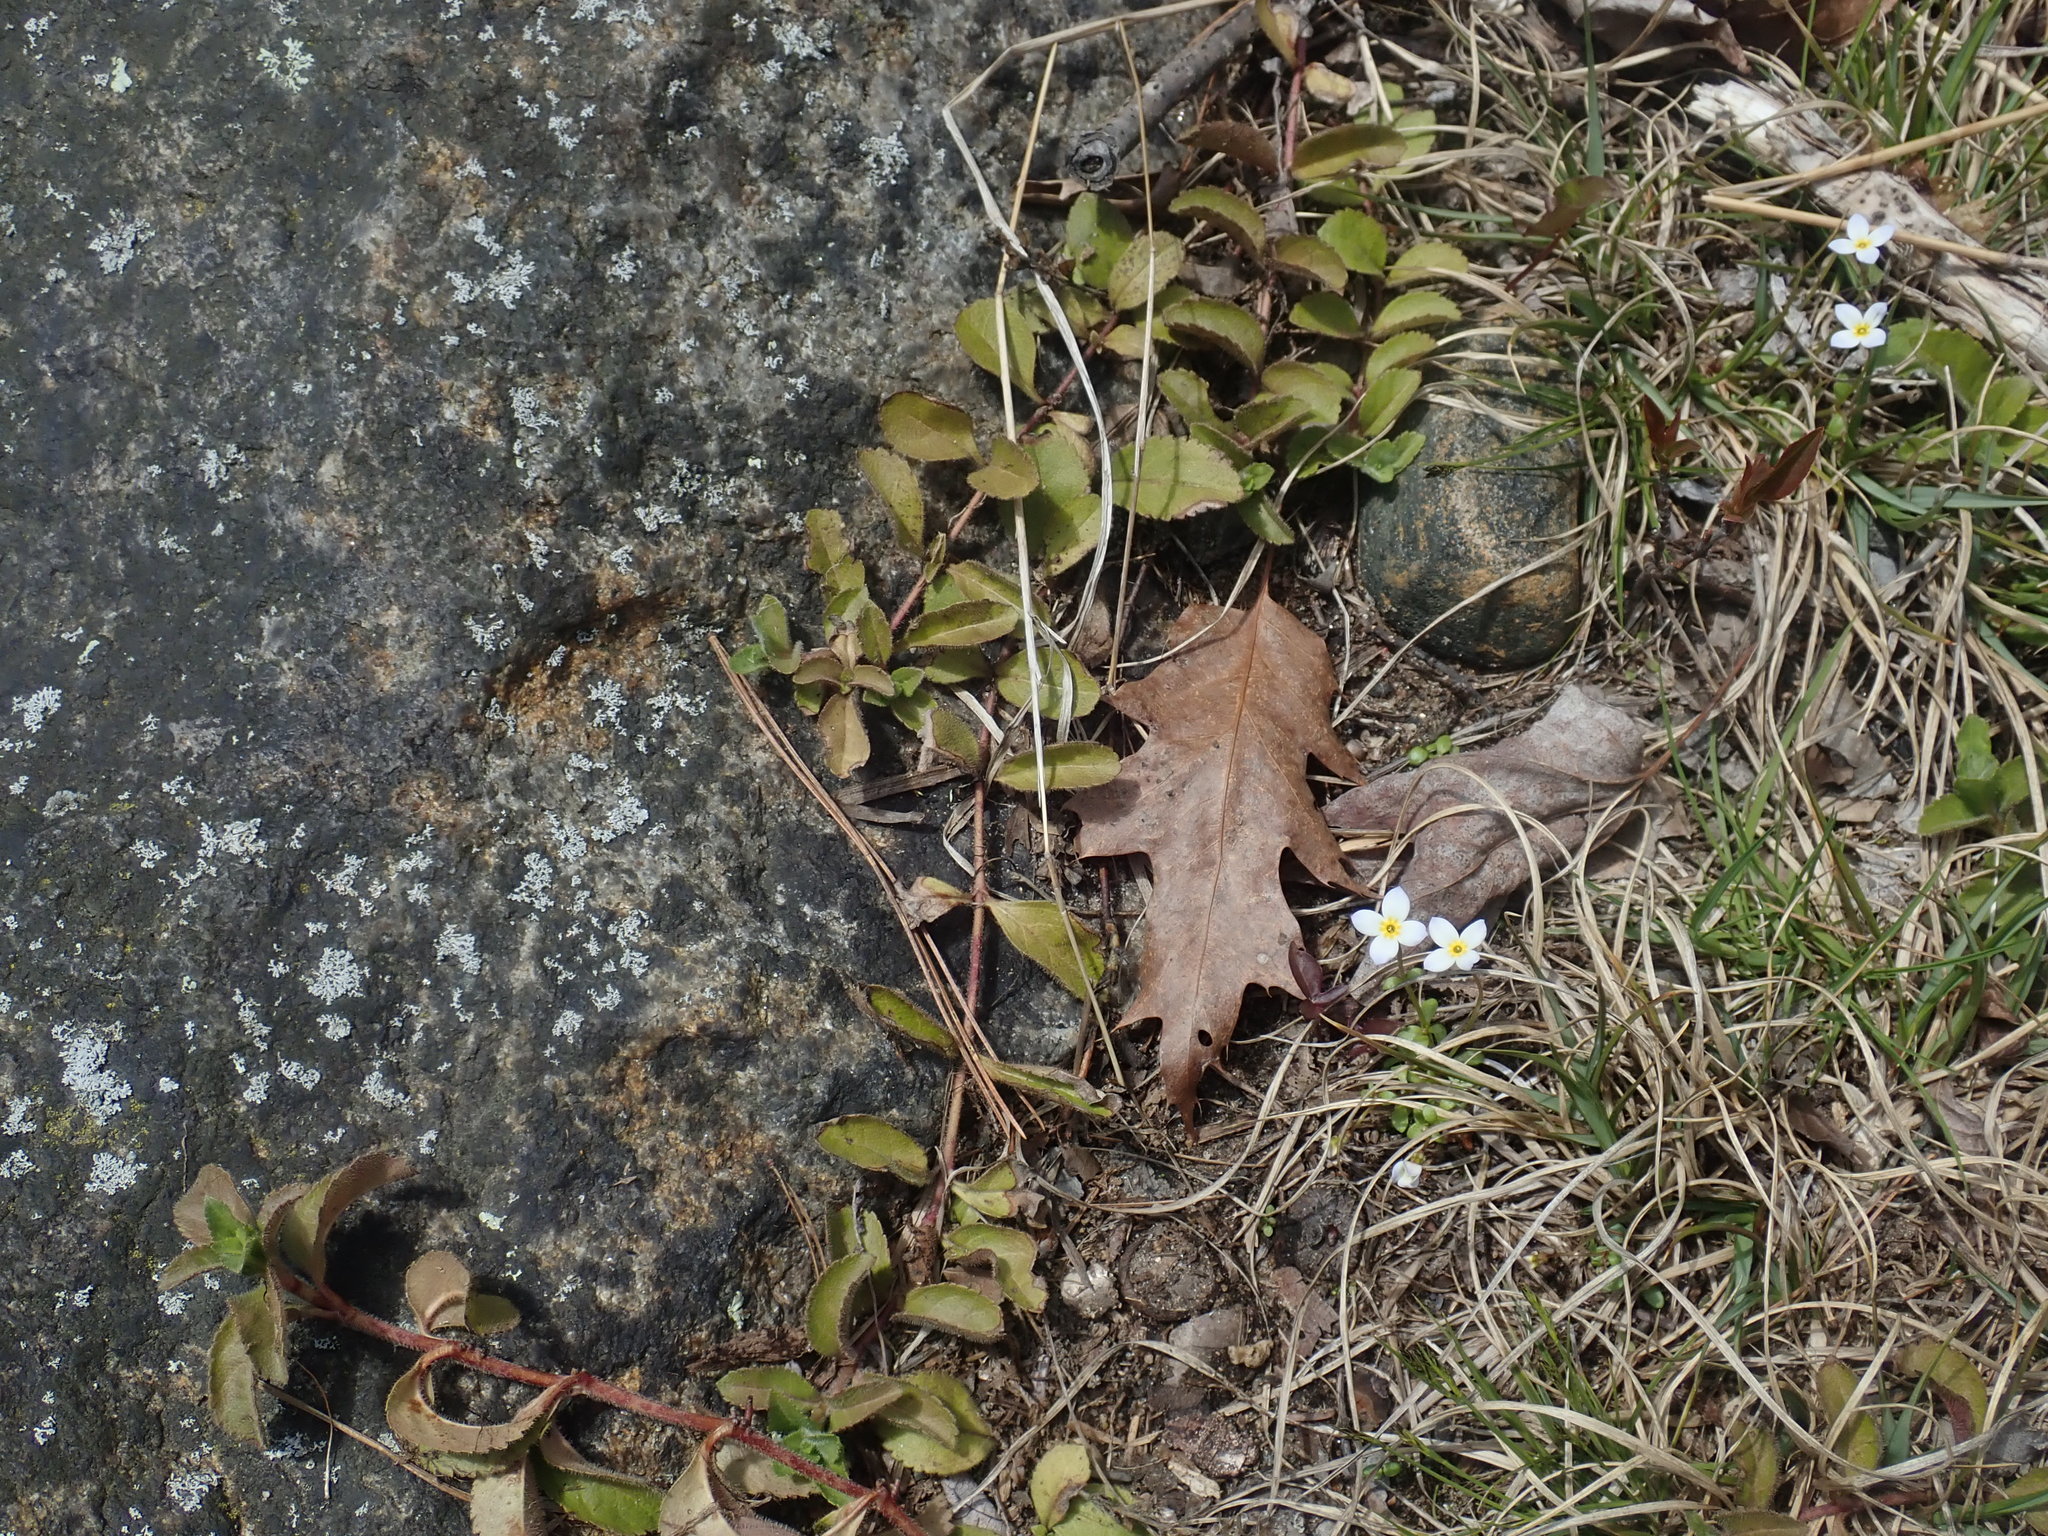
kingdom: Plantae
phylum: Tracheophyta
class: Magnoliopsida
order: Lamiales
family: Plantaginaceae
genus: Veronica
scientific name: Veronica officinalis
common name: Common speedwell
